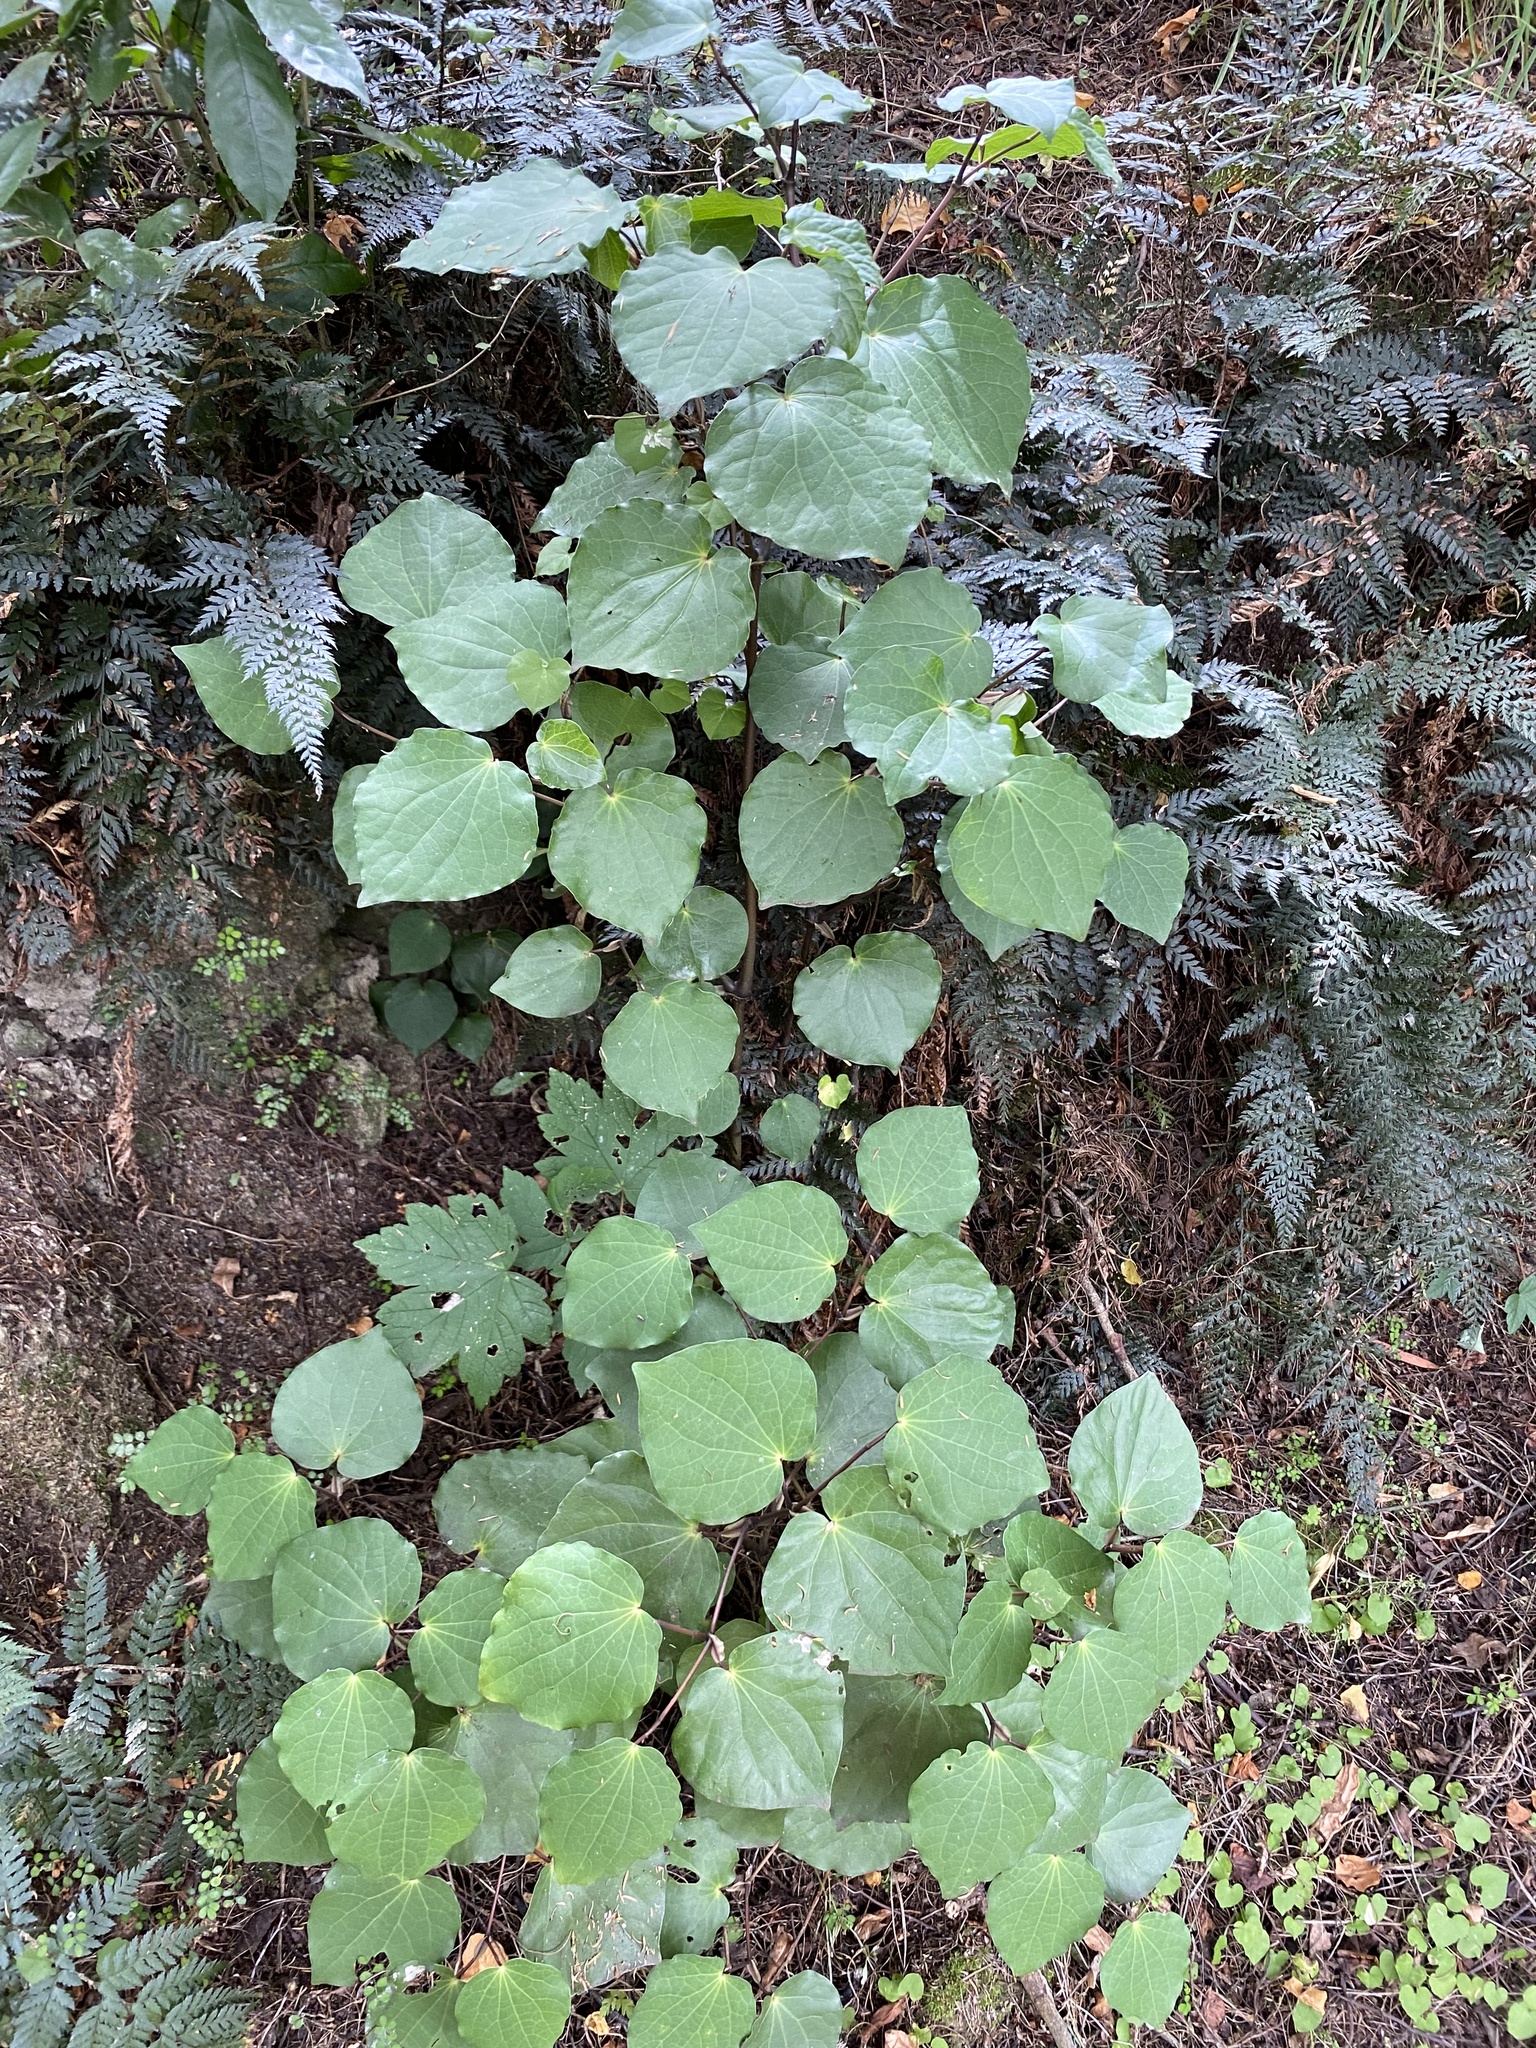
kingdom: Plantae
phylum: Tracheophyta
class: Magnoliopsida
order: Piperales
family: Piperaceae
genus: Macropiper
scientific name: Macropiper excelsum
